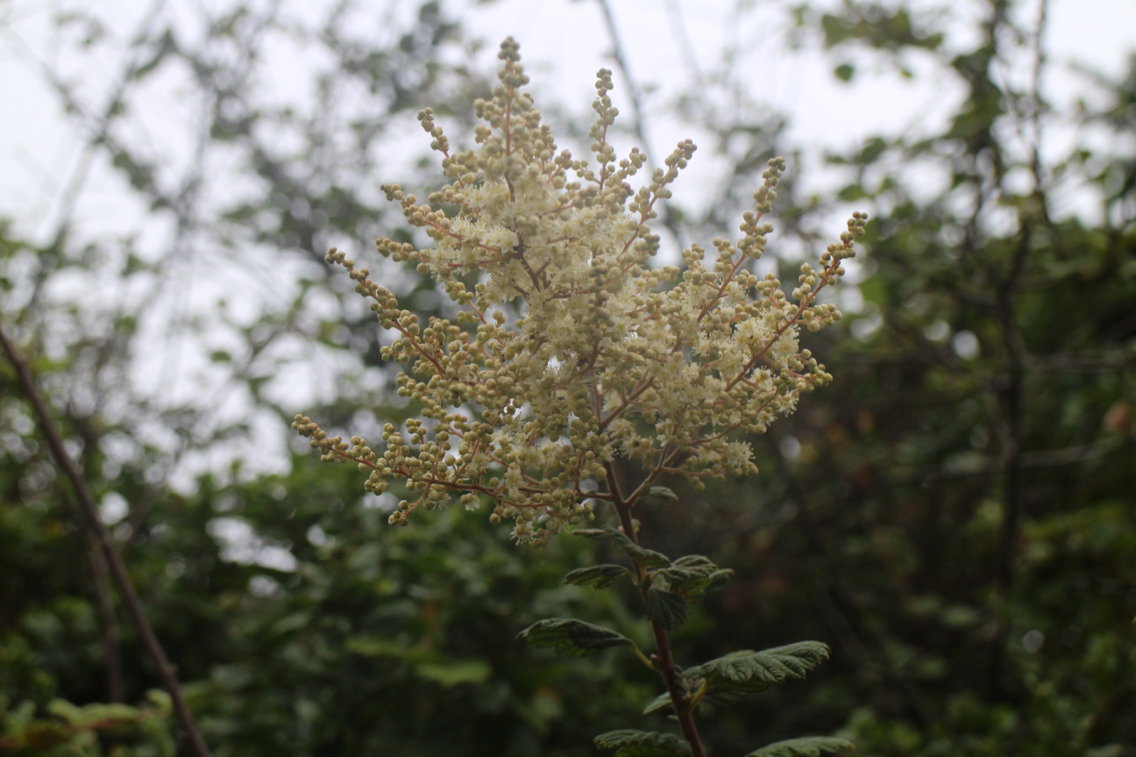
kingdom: Plantae
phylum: Tracheophyta
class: Magnoliopsida
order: Rosales
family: Rosaceae
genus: Holodiscus
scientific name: Holodiscus discolor
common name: Oceanspray
